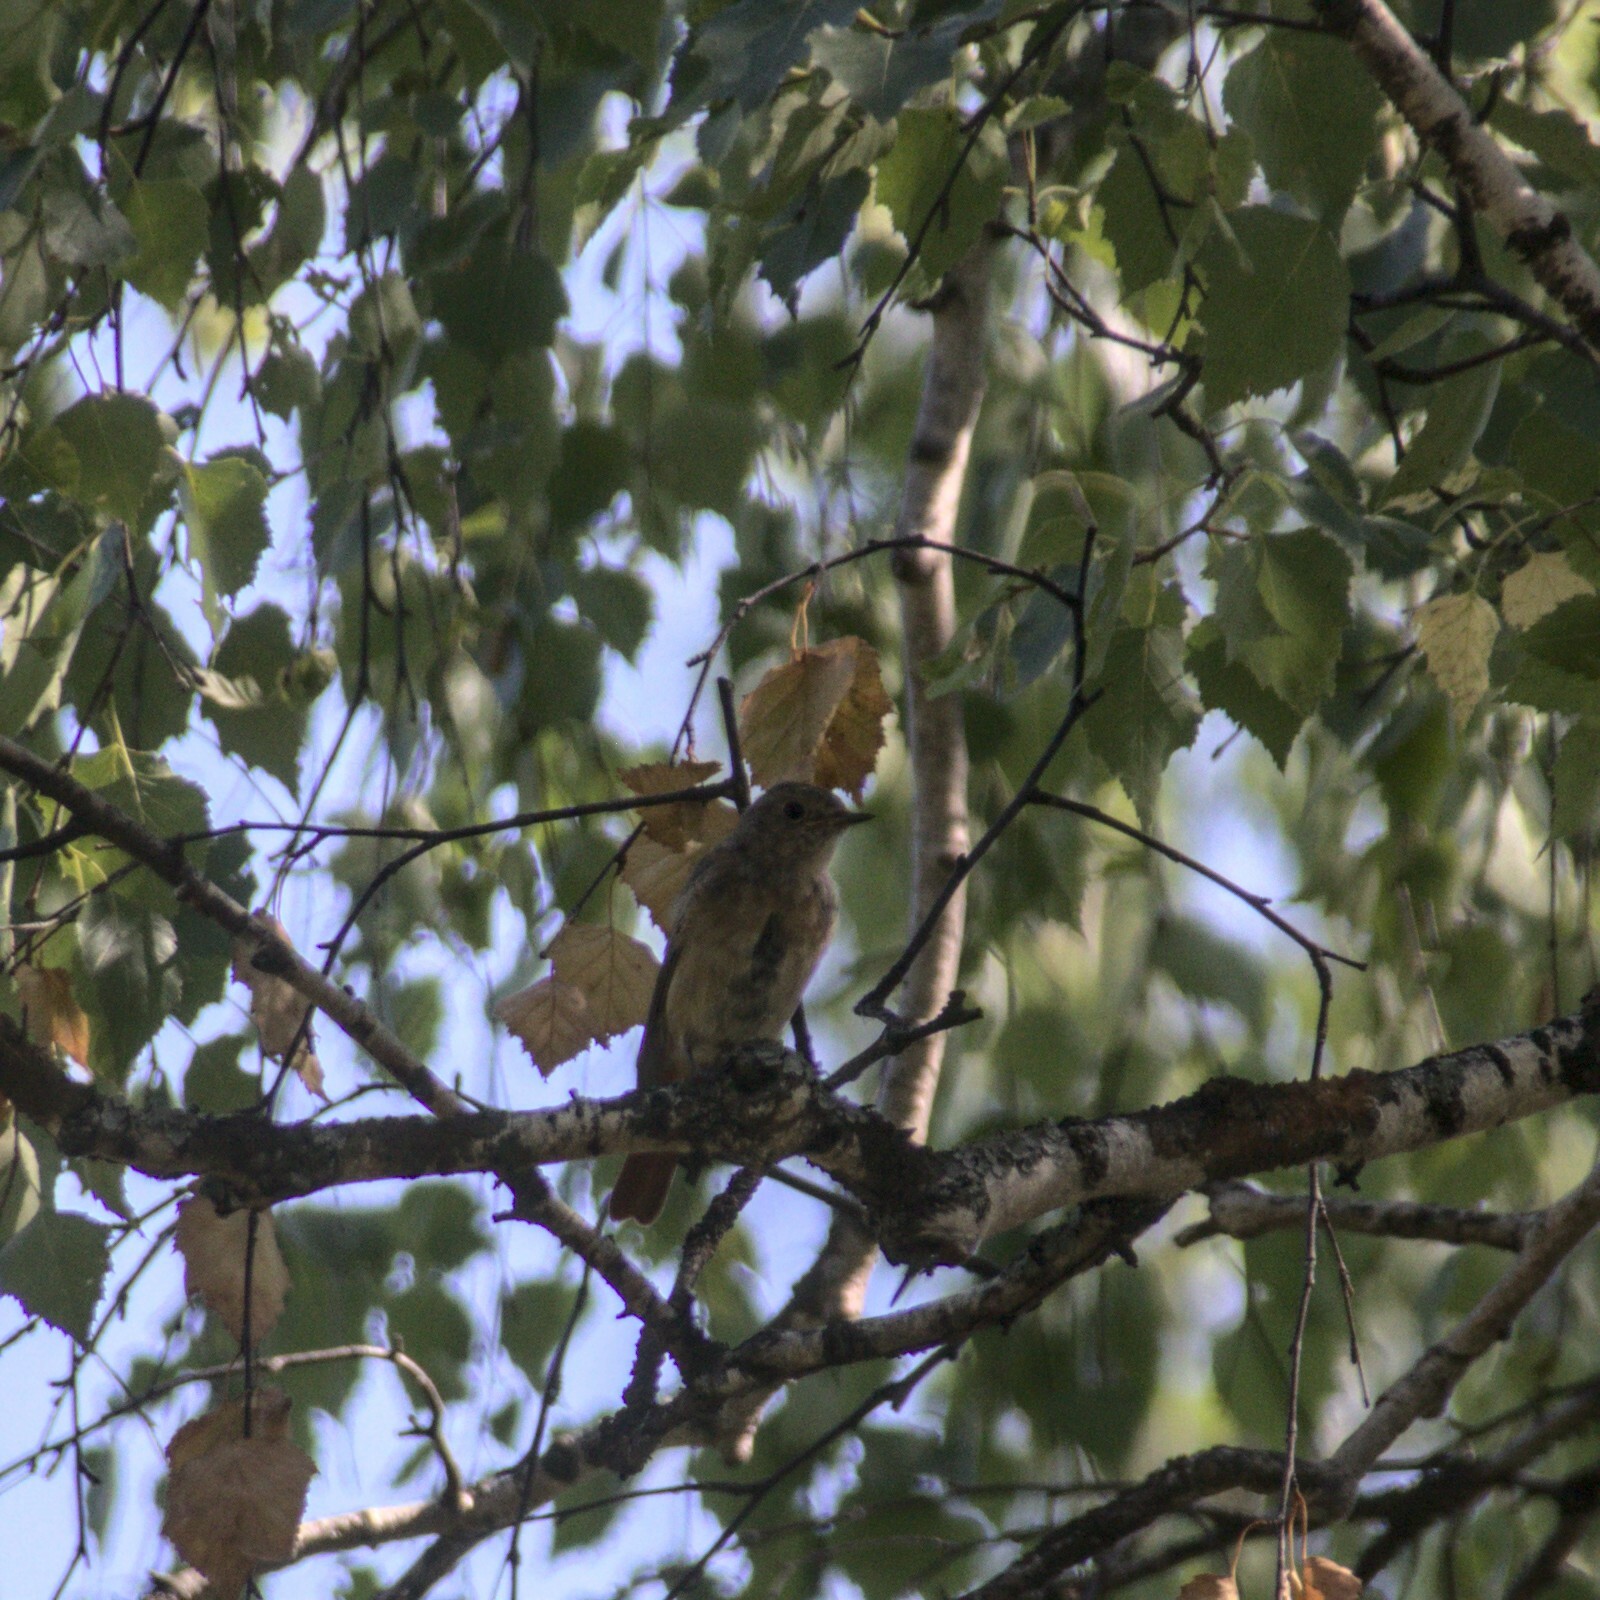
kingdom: Animalia
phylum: Chordata
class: Aves
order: Passeriformes
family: Muscicapidae
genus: Phoenicurus
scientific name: Phoenicurus phoenicurus
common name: Common redstart
